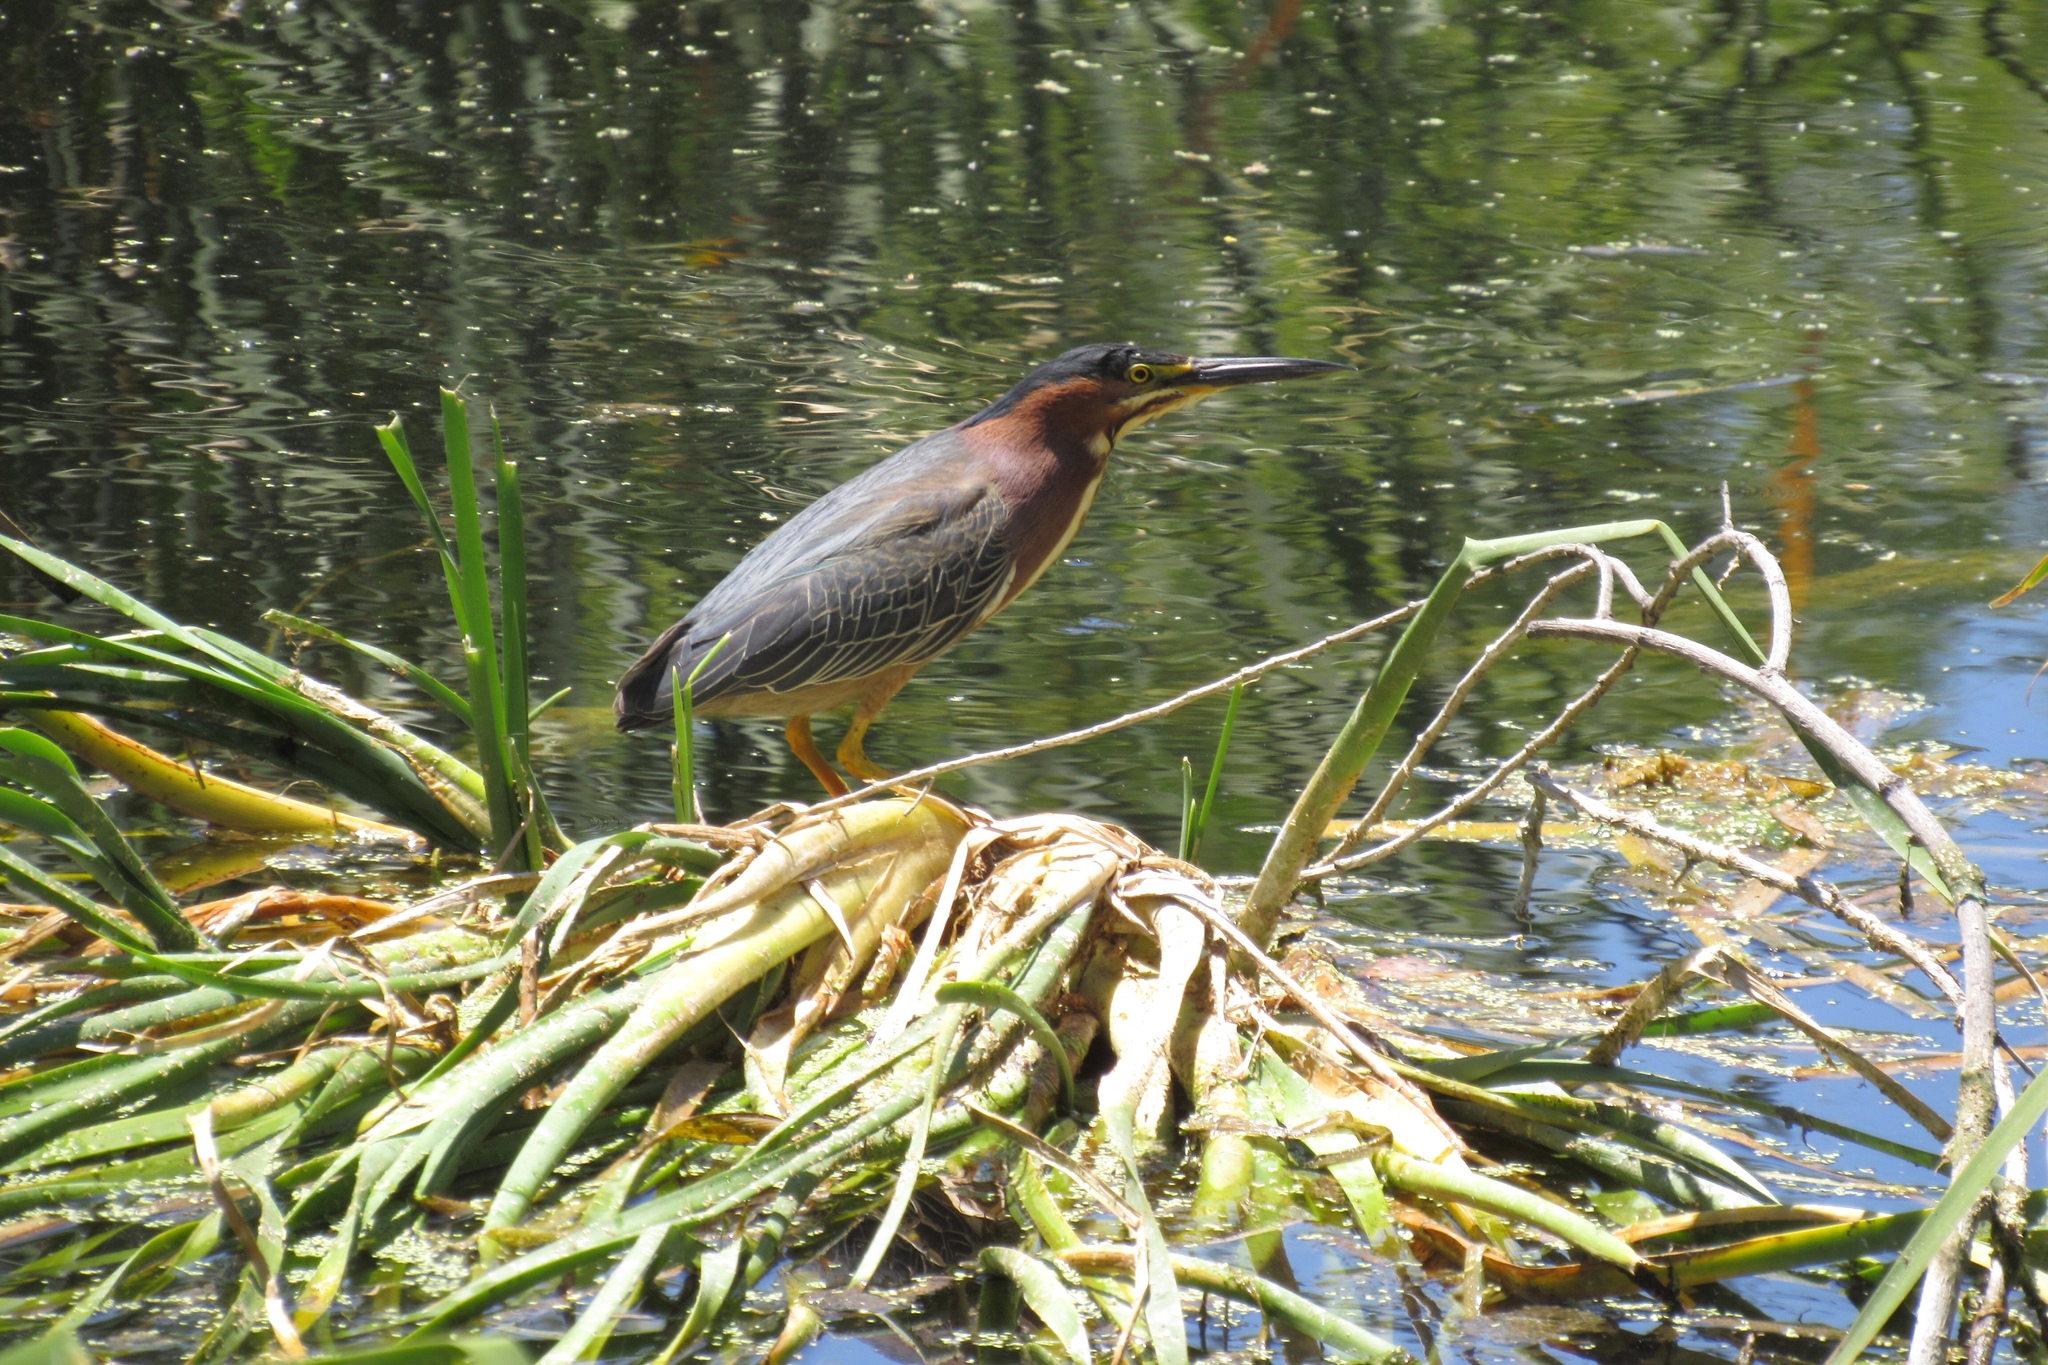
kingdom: Animalia
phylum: Chordata
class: Aves
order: Pelecaniformes
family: Ardeidae
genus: Butorides
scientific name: Butorides virescens
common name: Green heron
